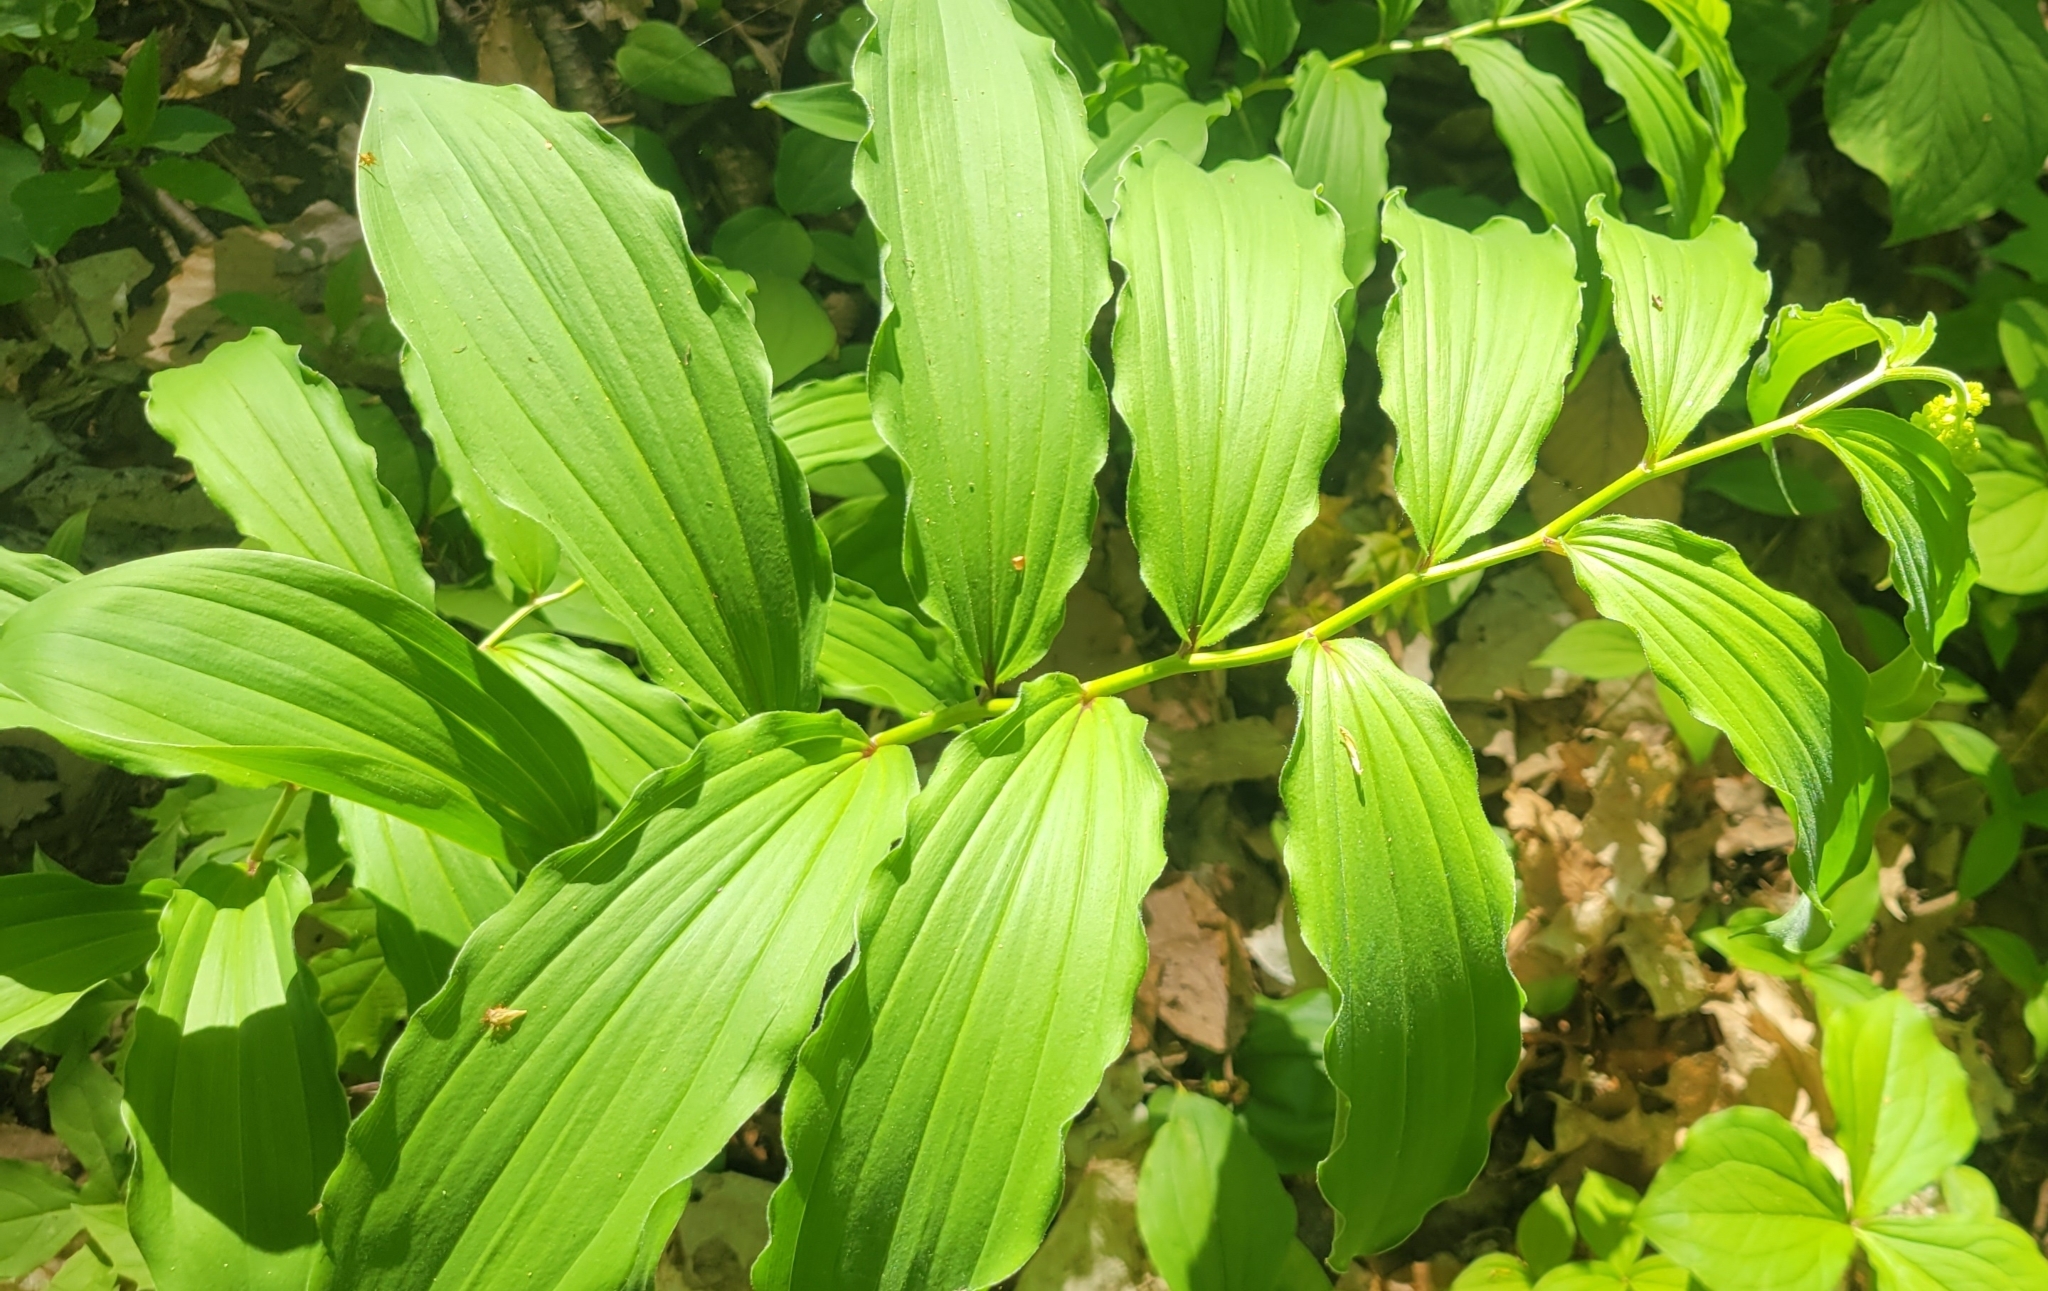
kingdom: Plantae
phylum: Tracheophyta
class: Liliopsida
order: Asparagales
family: Asparagaceae
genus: Maianthemum
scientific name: Maianthemum racemosum
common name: False spikenard
